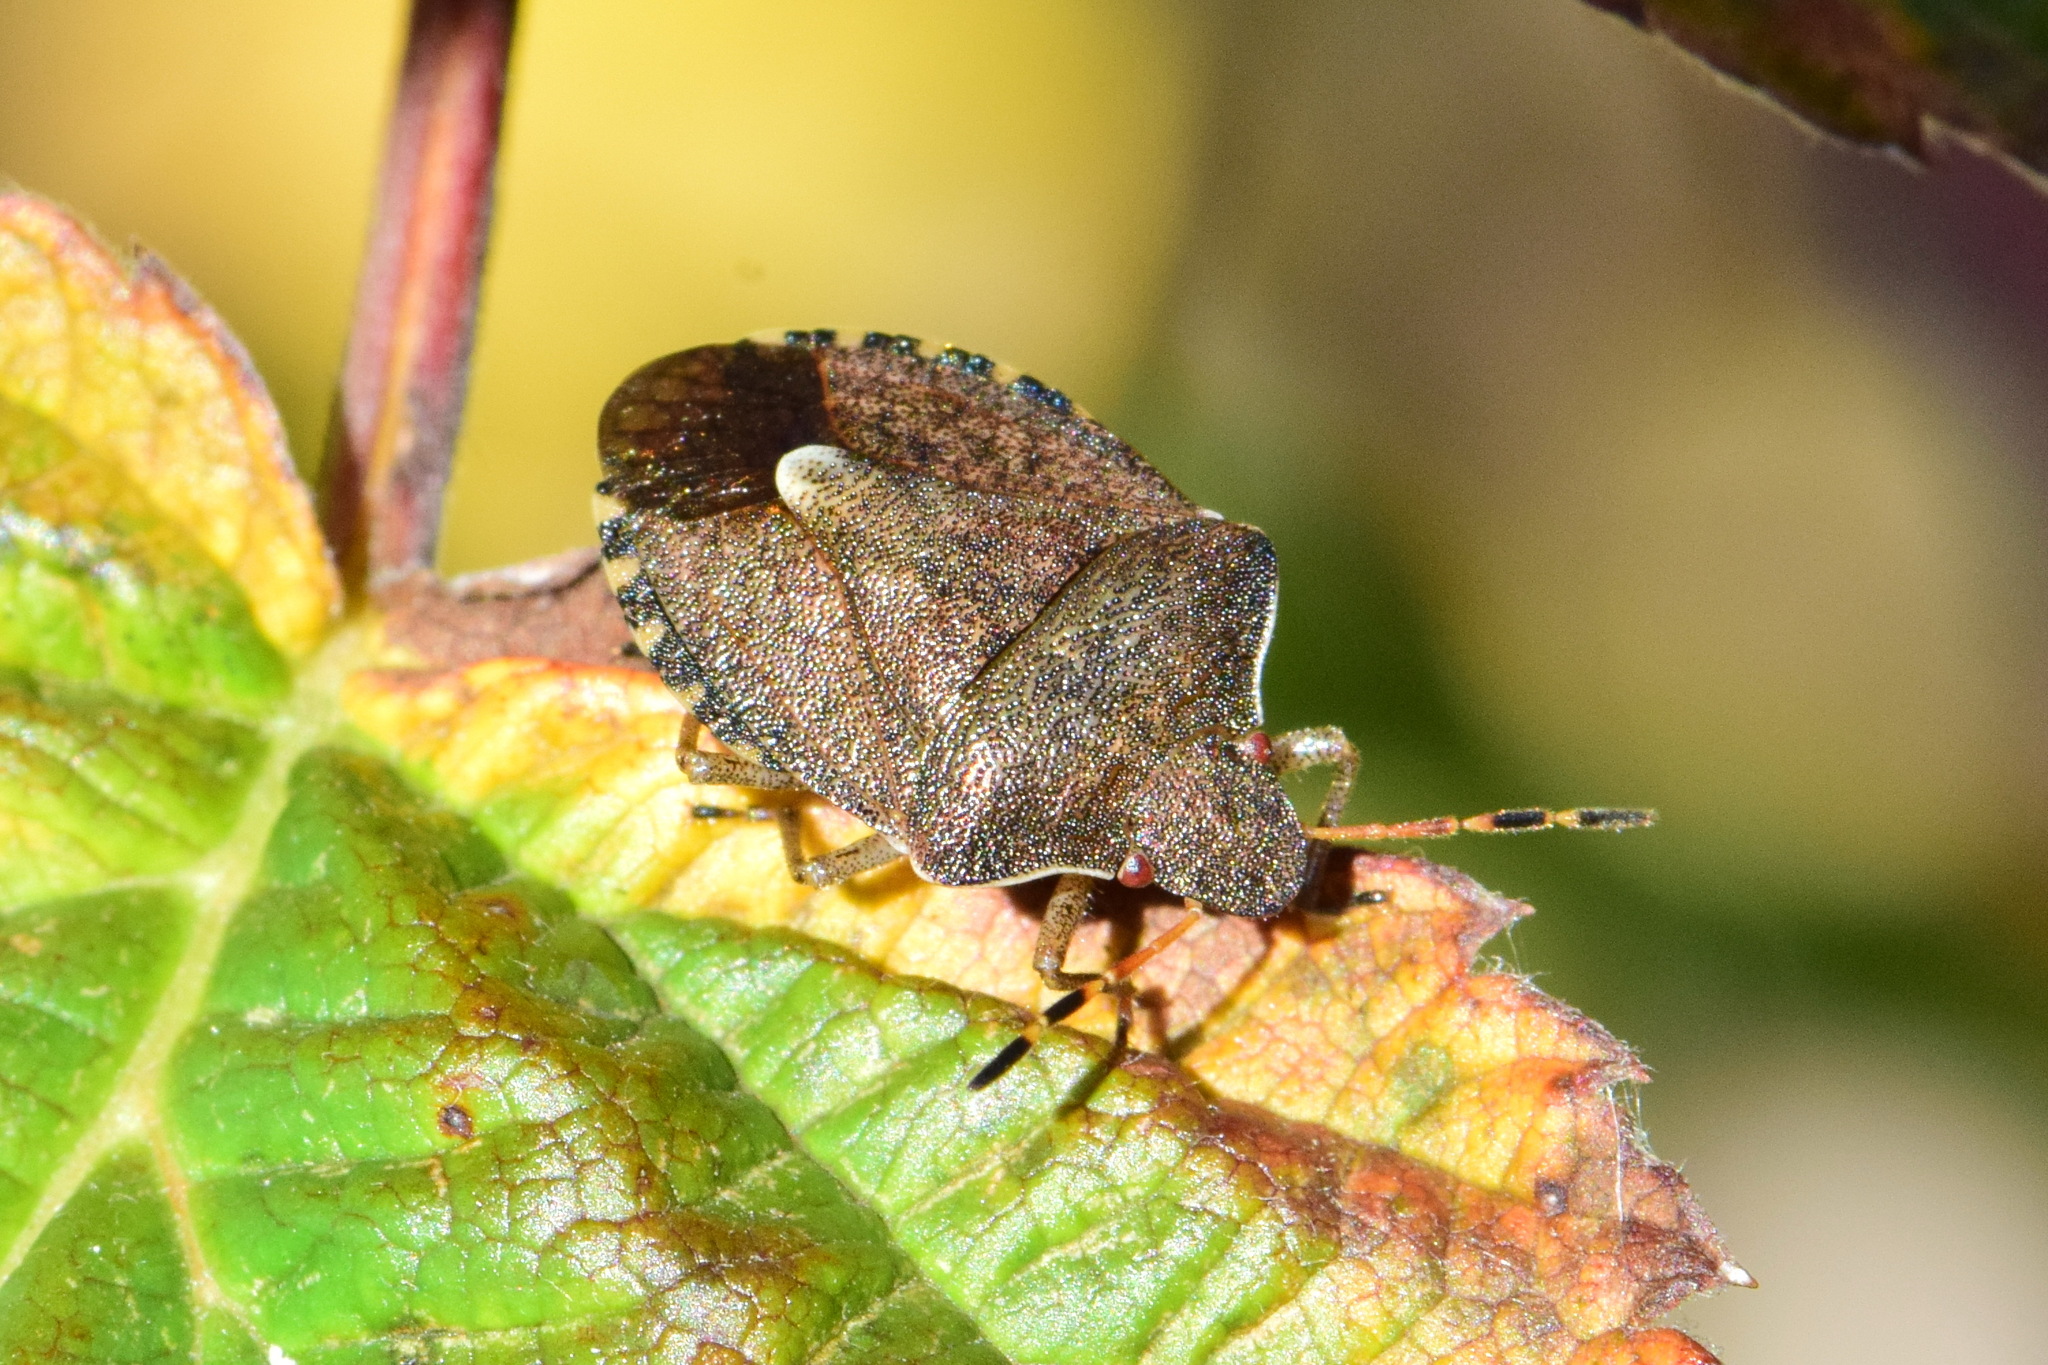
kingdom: Animalia
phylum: Arthropoda
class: Insecta
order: Hemiptera
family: Pentatomidae
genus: Holcostethus
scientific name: Holcostethus strictus
